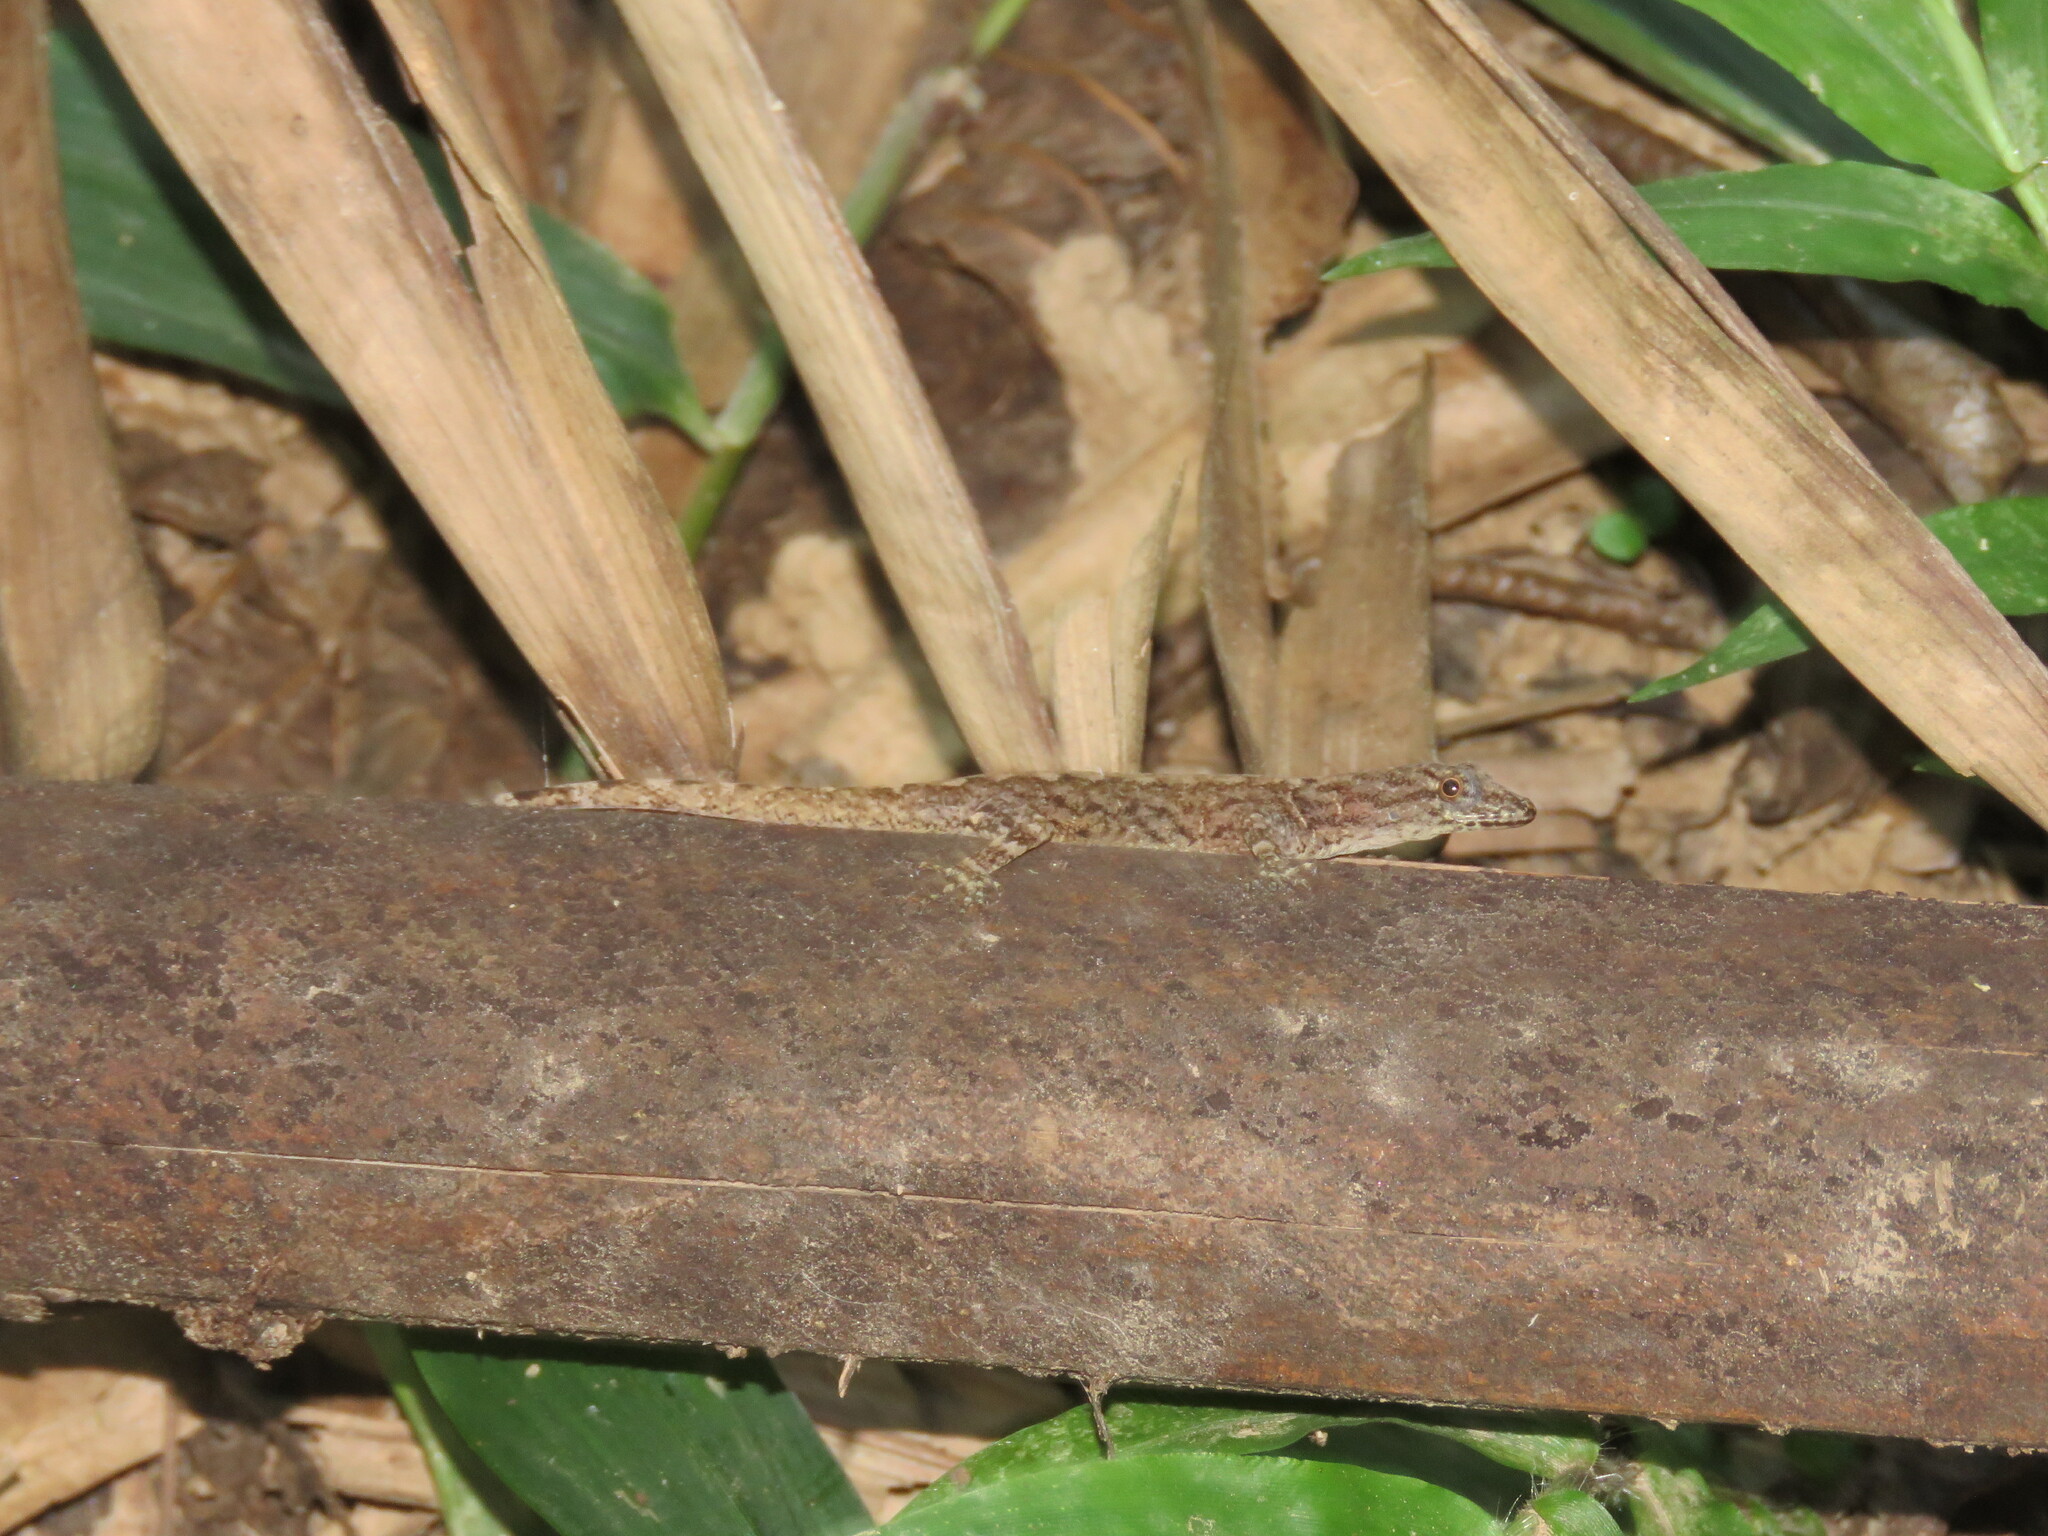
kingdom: Animalia
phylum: Chordata
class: Squamata
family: Sphaerodactylidae
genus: Gonatodes
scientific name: Gonatodes humeralis
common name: South american clawed gecko
